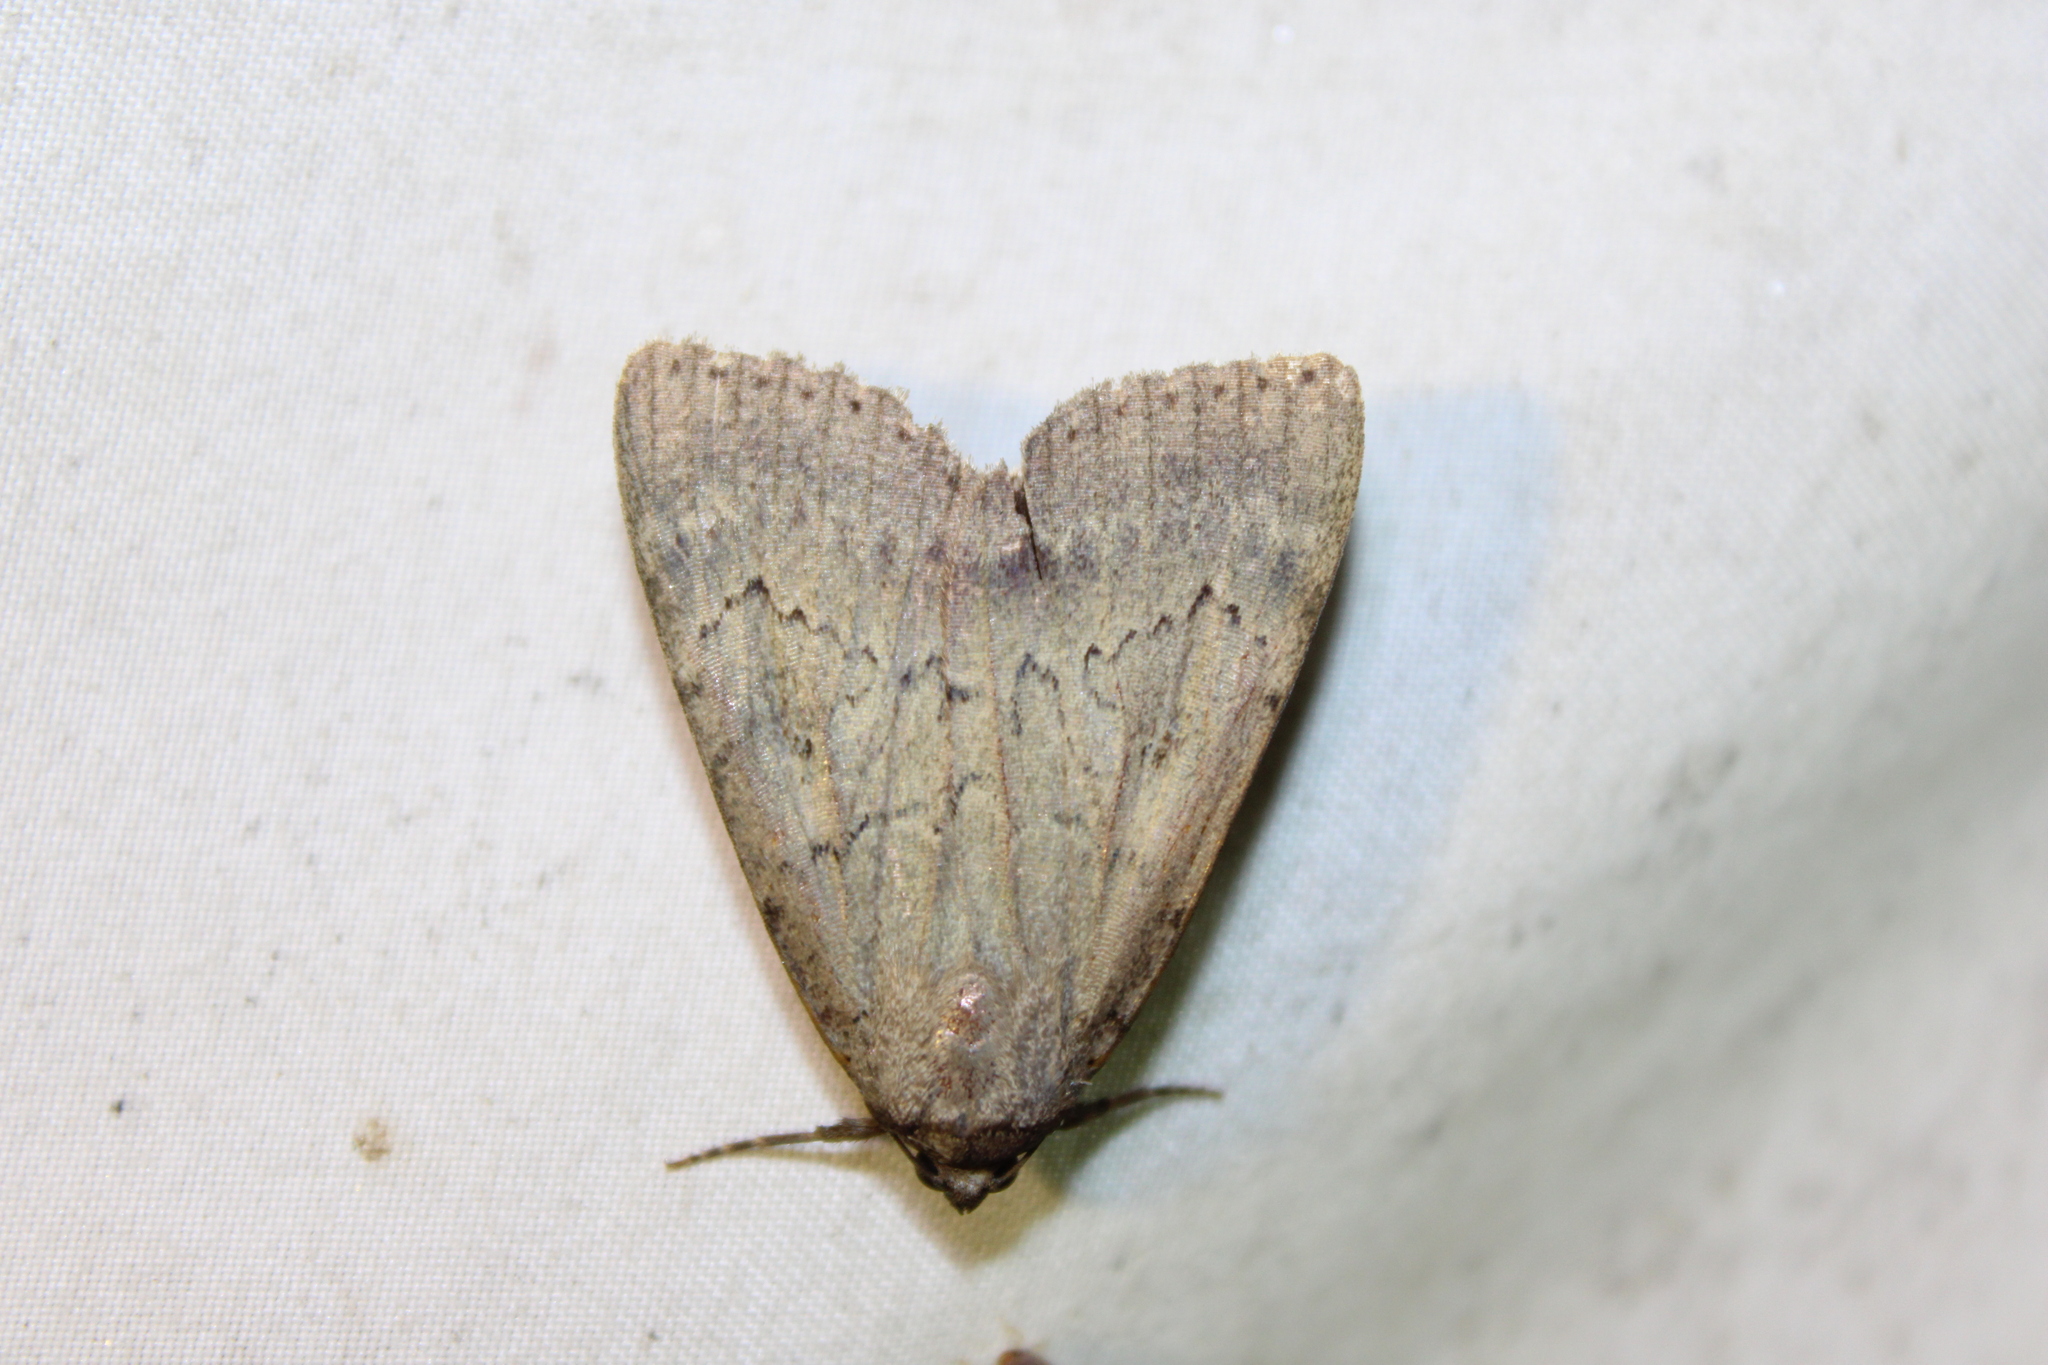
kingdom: Animalia
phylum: Arthropoda
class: Insecta
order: Lepidoptera
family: Erebidae
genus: Catocala
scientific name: Catocala serena
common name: Serene underwing
